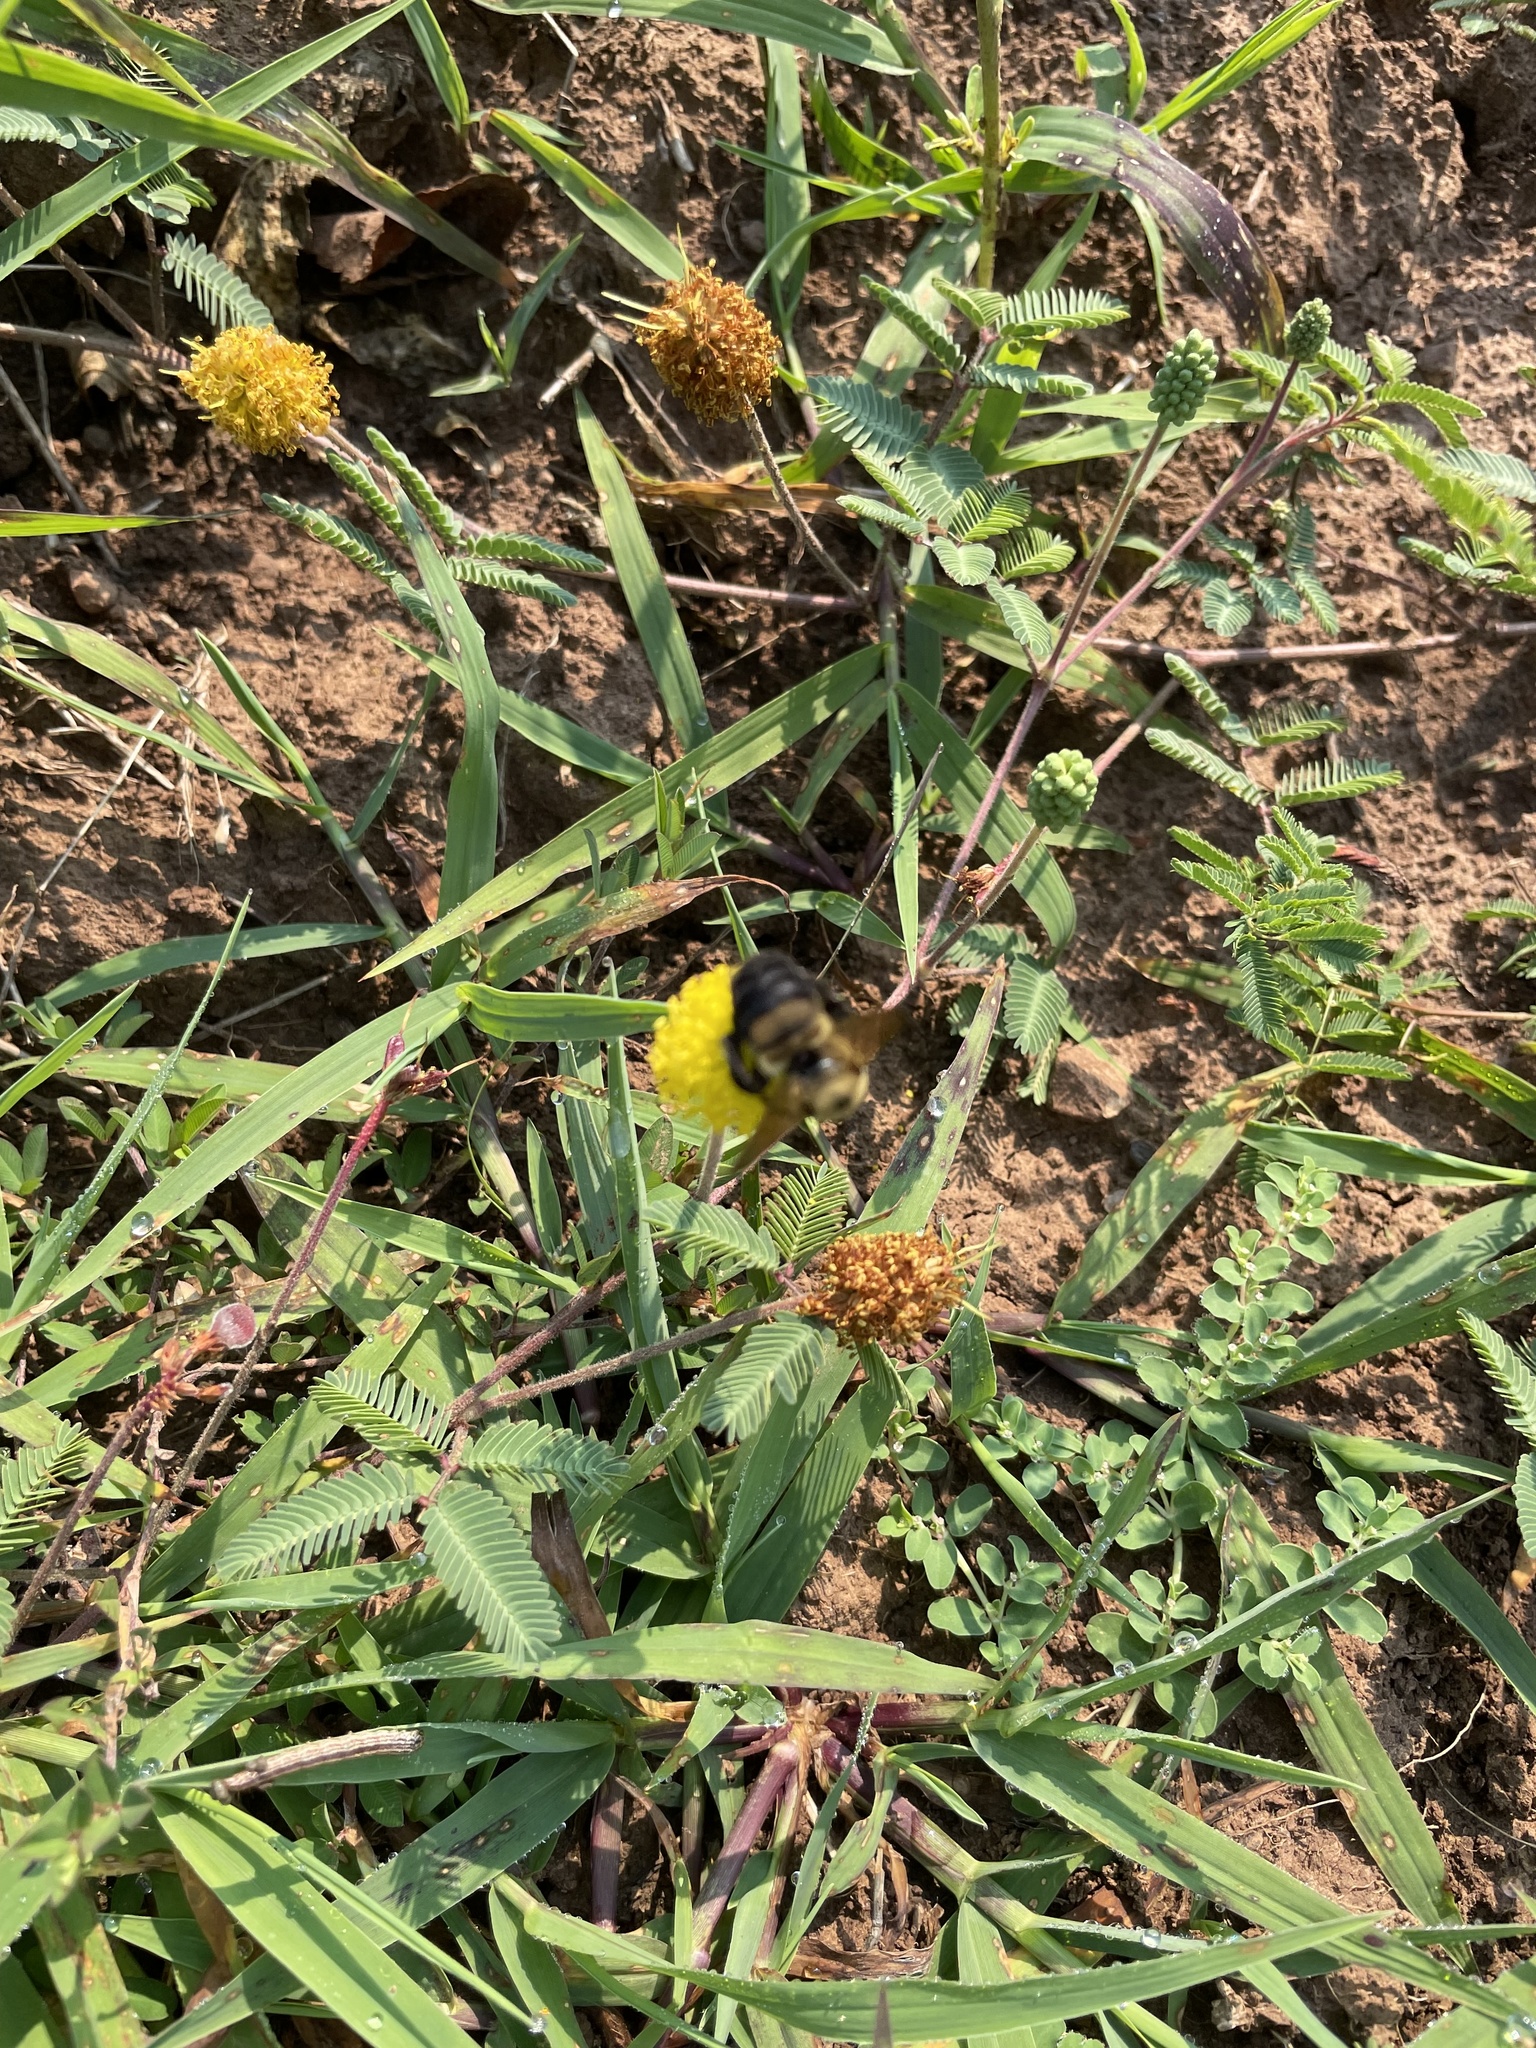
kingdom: Animalia
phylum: Arthropoda
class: Insecta
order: Hymenoptera
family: Apidae
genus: Bombus
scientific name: Bombus griseocollis
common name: Brown-belted bumble bee
